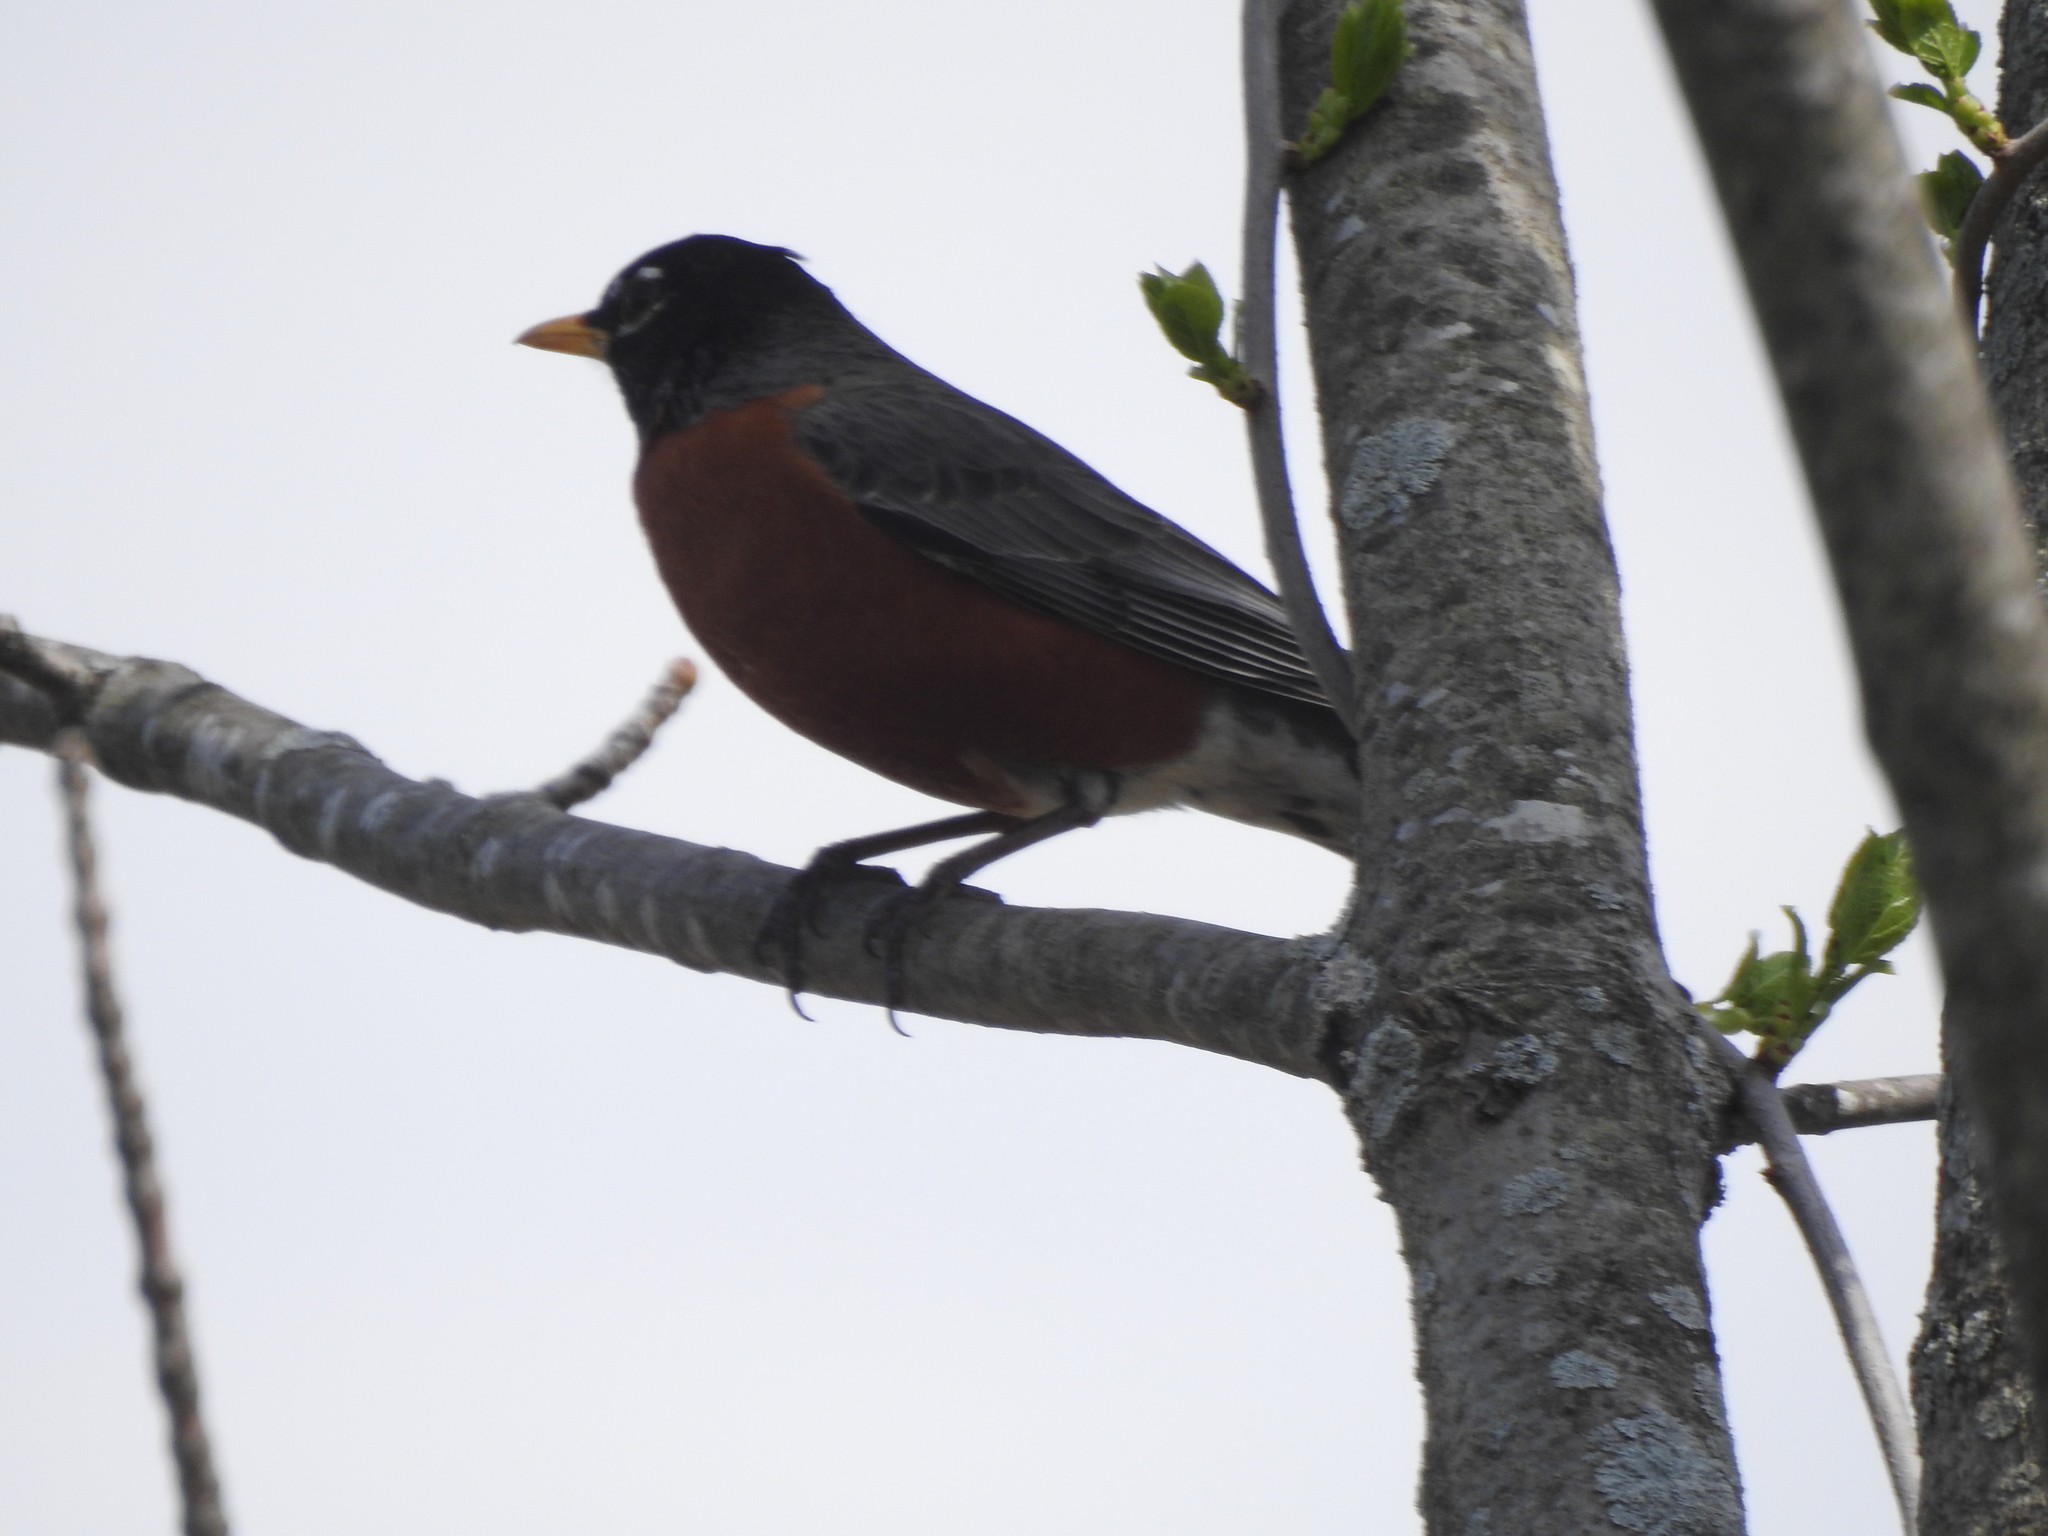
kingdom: Animalia
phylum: Chordata
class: Aves
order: Passeriformes
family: Turdidae
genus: Turdus
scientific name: Turdus migratorius
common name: American robin
